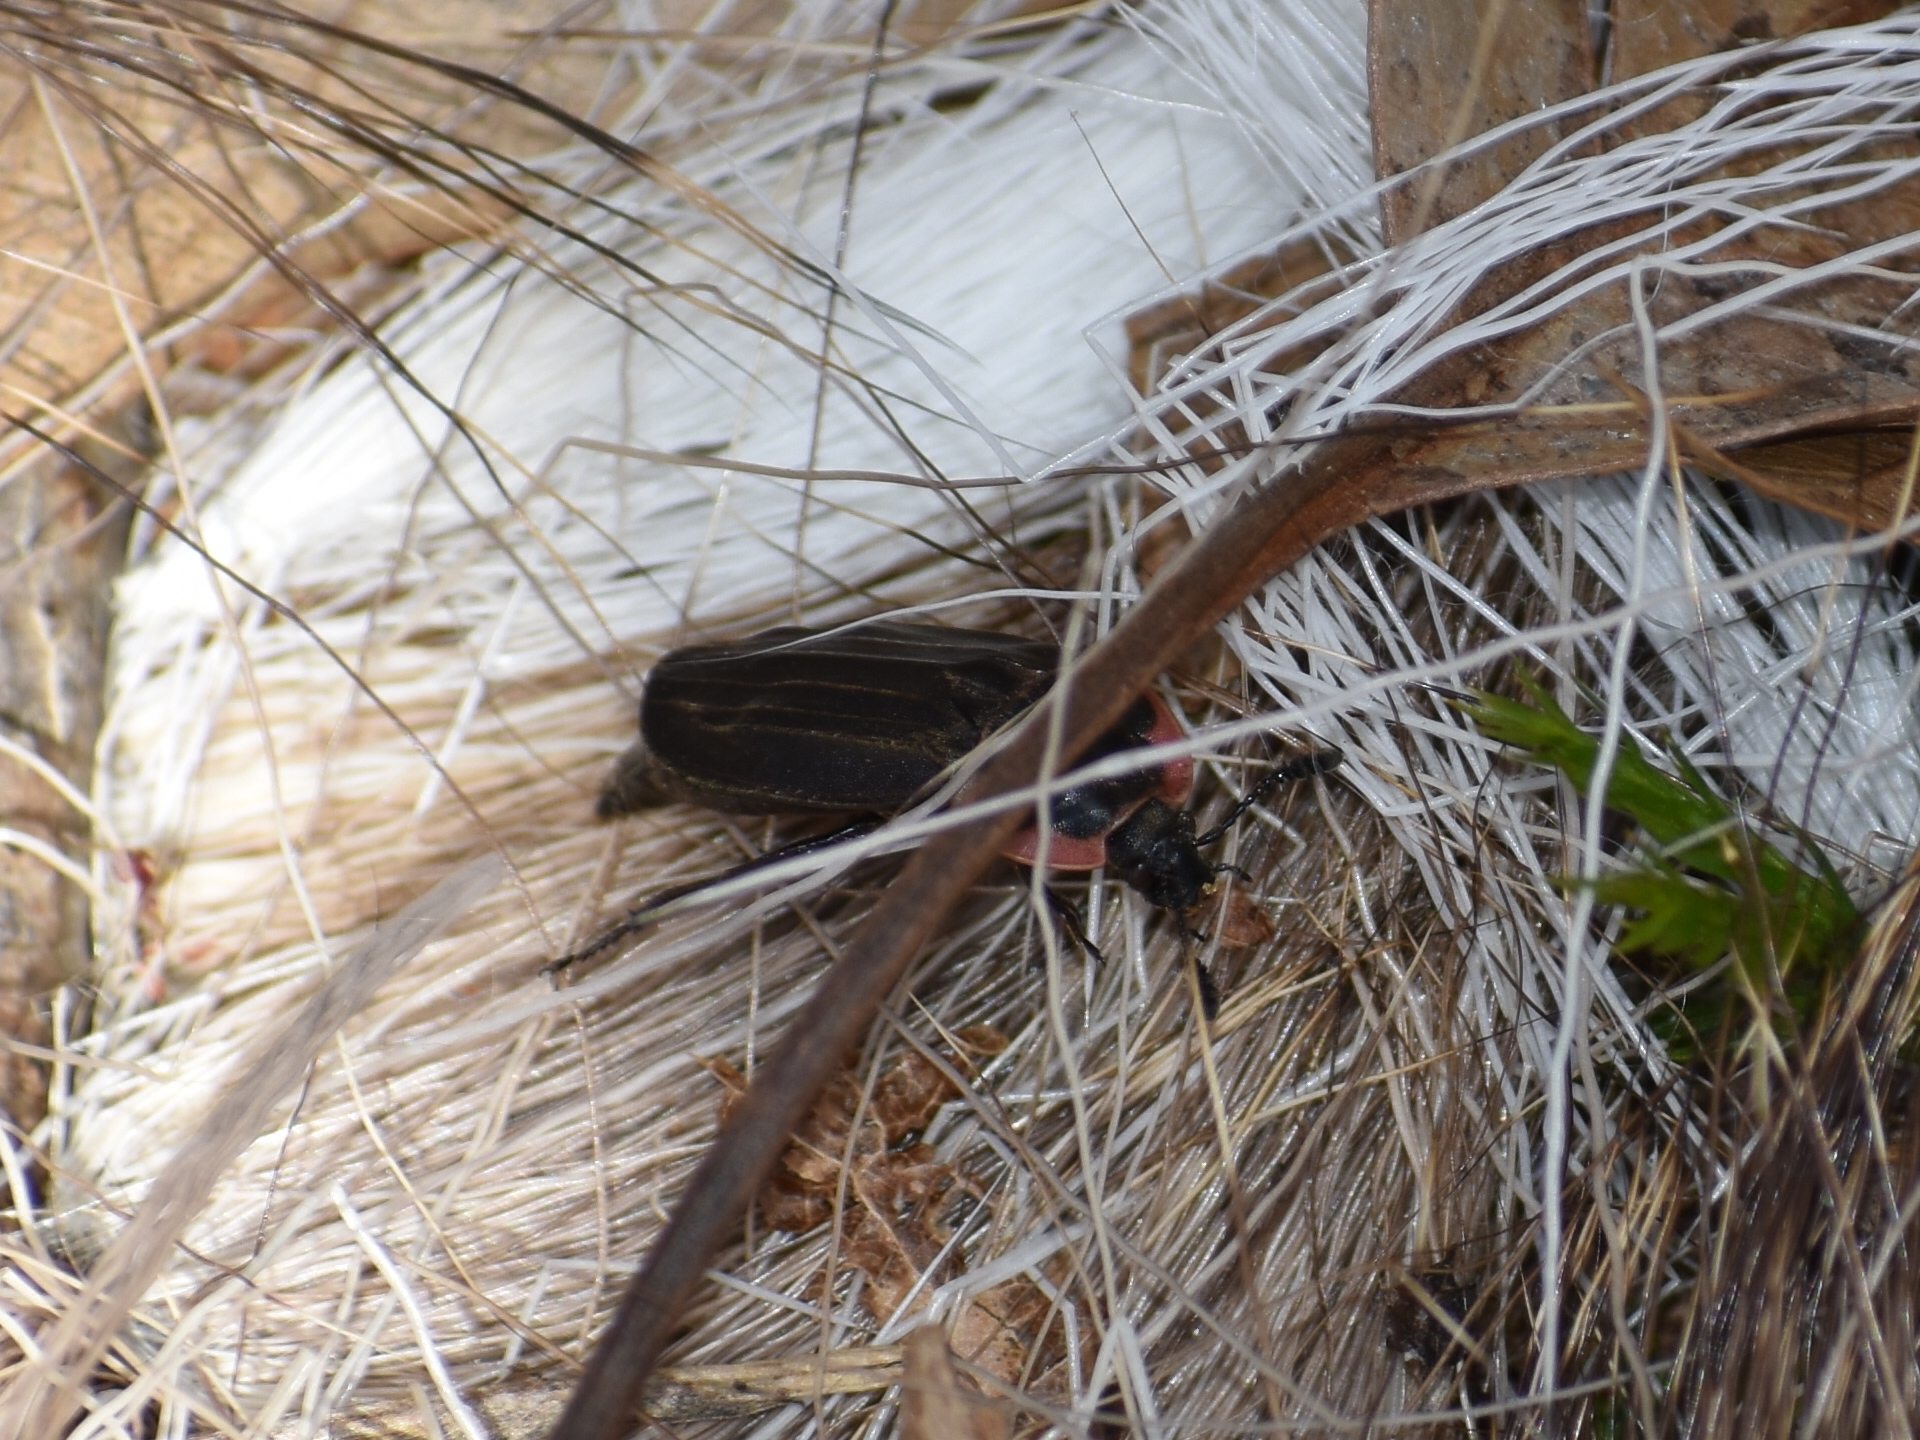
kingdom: Animalia
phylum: Arthropoda
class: Insecta
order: Coleoptera
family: Staphylinidae
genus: Oiceoptoma
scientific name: Oiceoptoma noveboracense
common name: Margined carrion beetle
